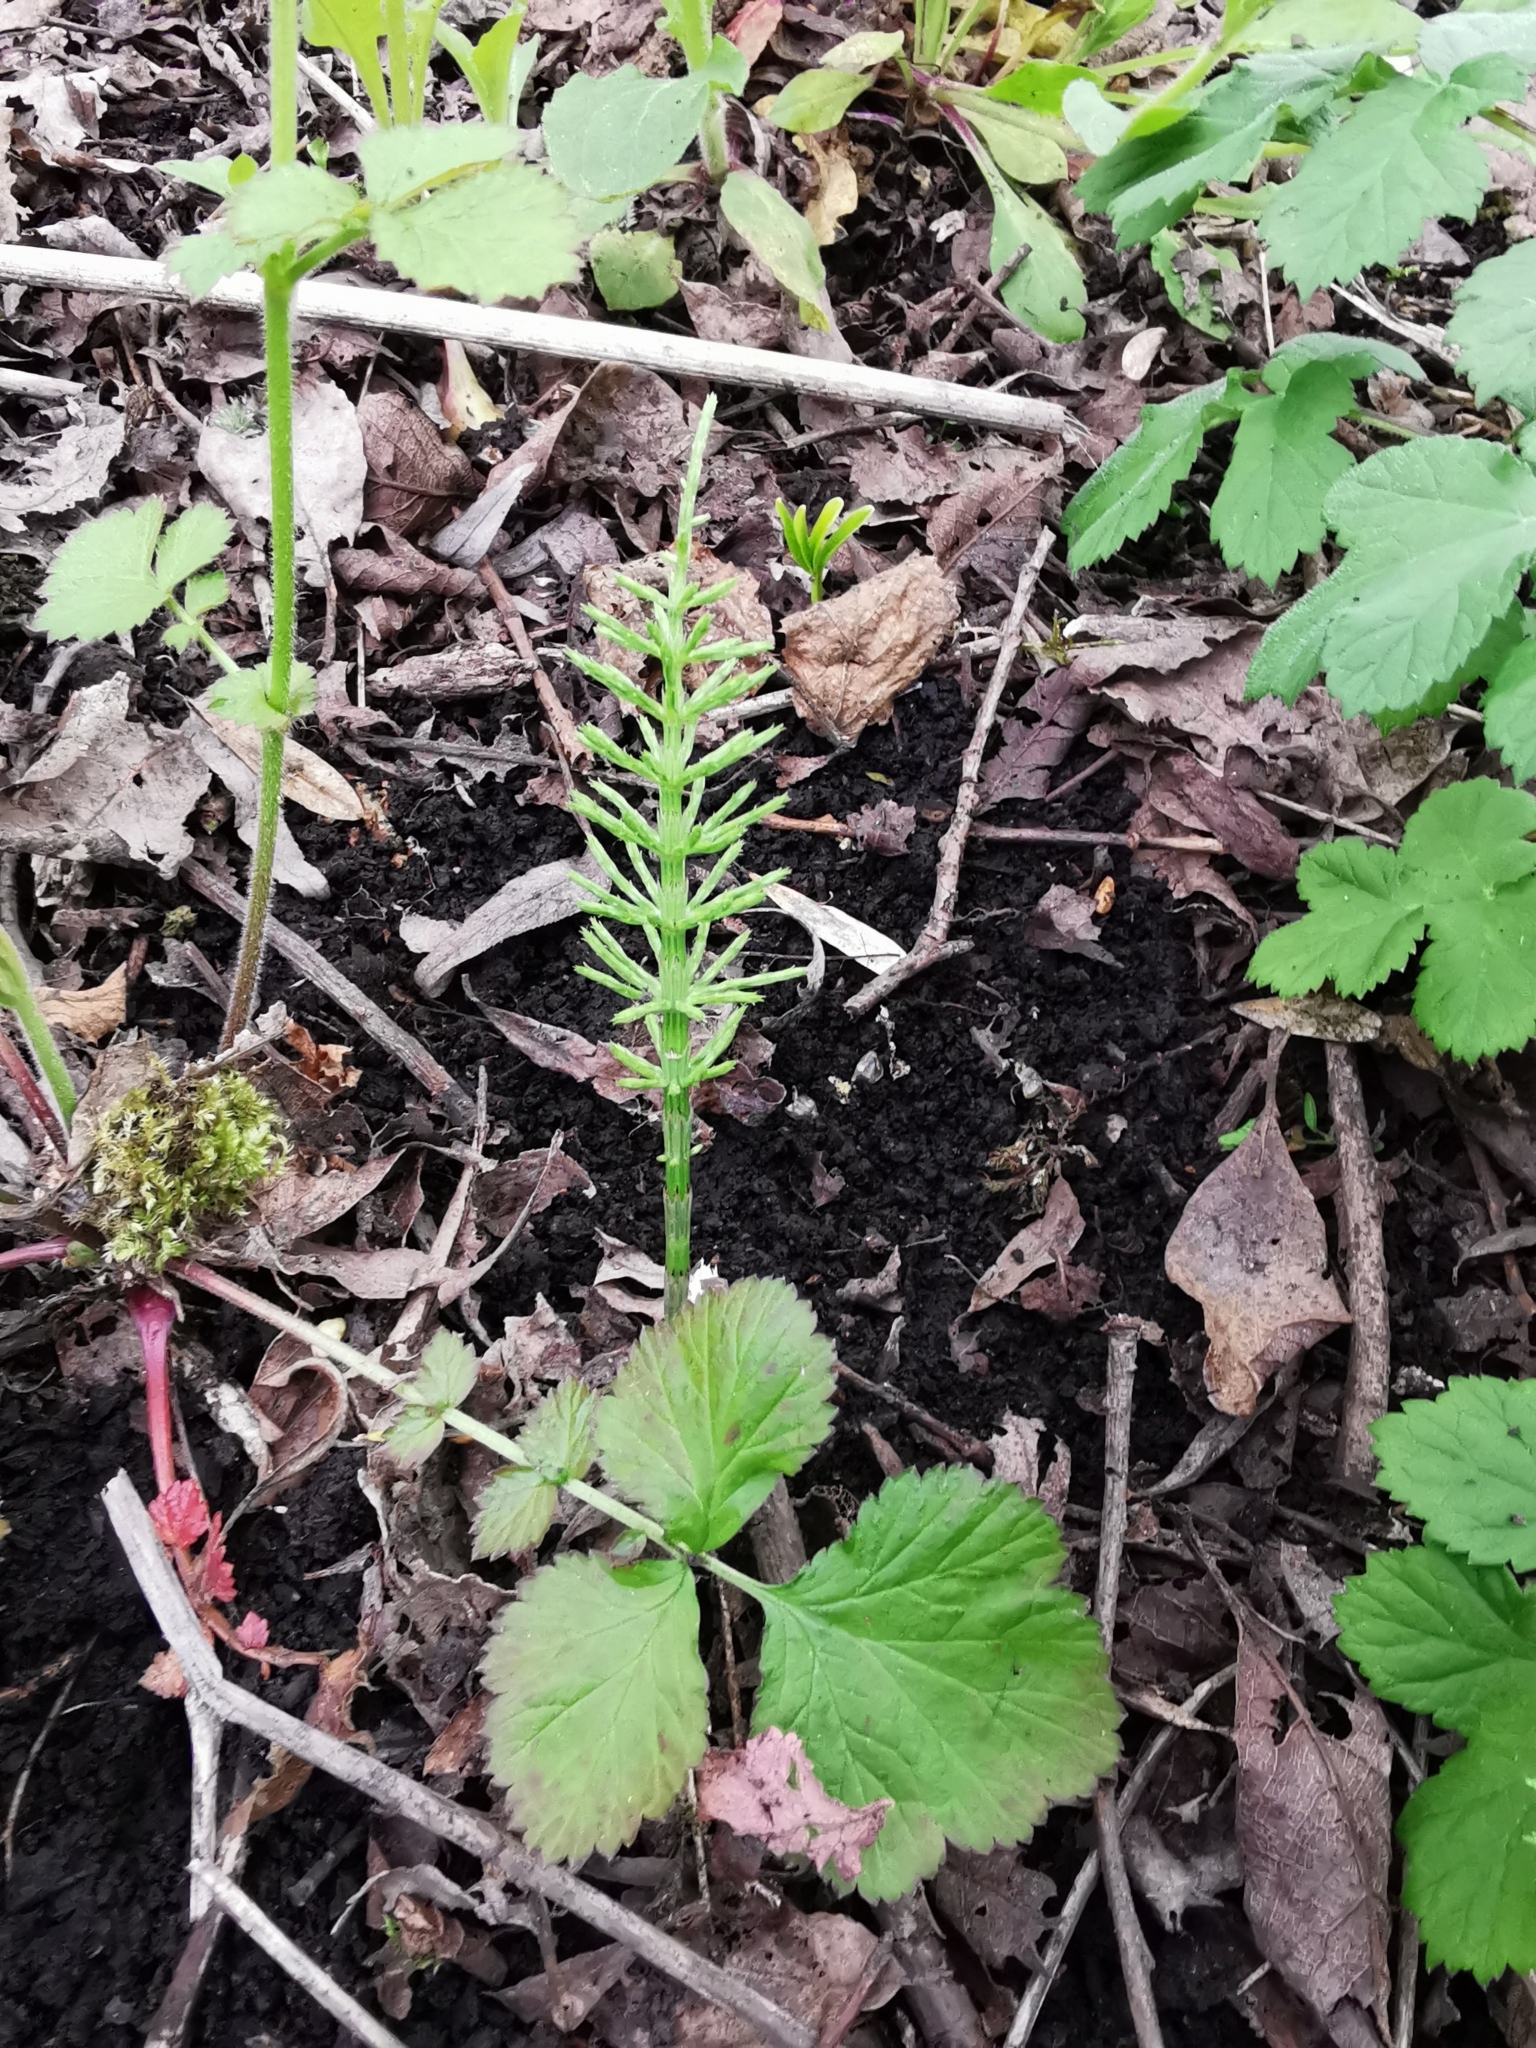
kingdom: Plantae
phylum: Tracheophyta
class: Polypodiopsida
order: Equisetales
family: Equisetaceae
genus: Equisetum
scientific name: Equisetum arvense
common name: Field horsetail
